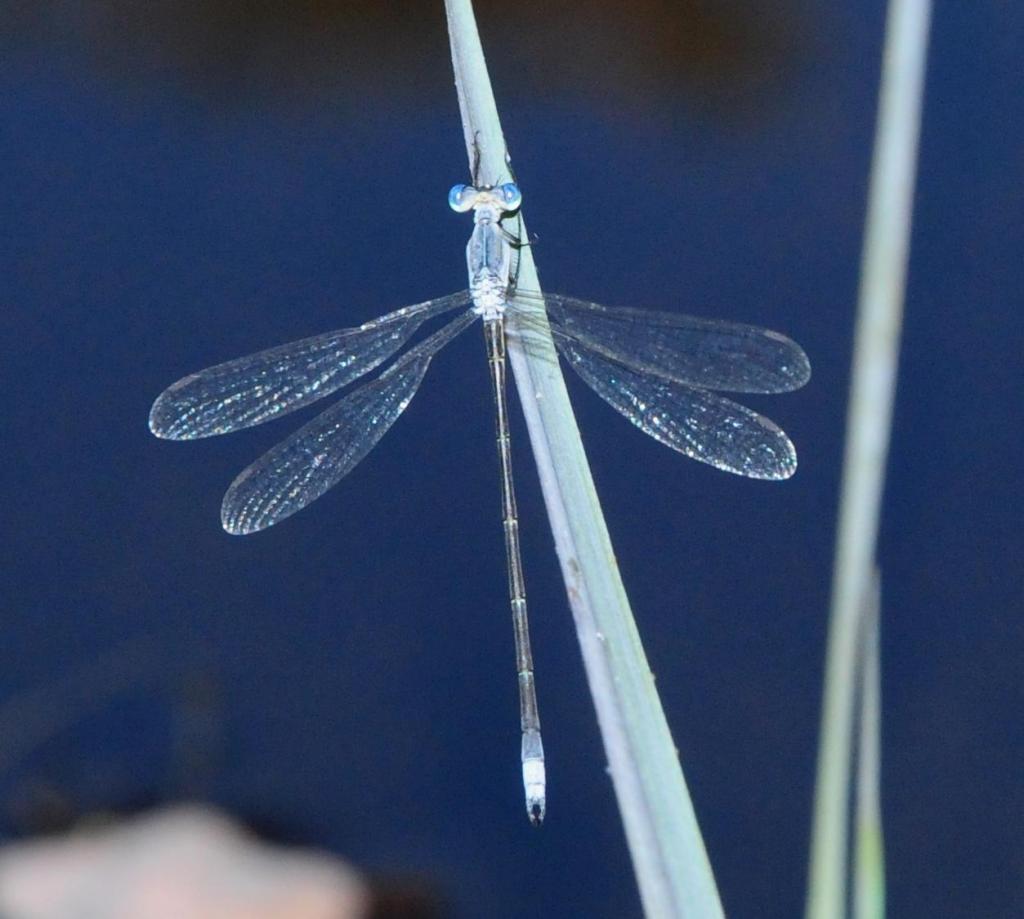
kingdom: Animalia
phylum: Arthropoda
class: Insecta
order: Odonata
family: Lestidae
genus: Lestes
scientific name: Lestes plagiatus
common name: Highland spreadwing
